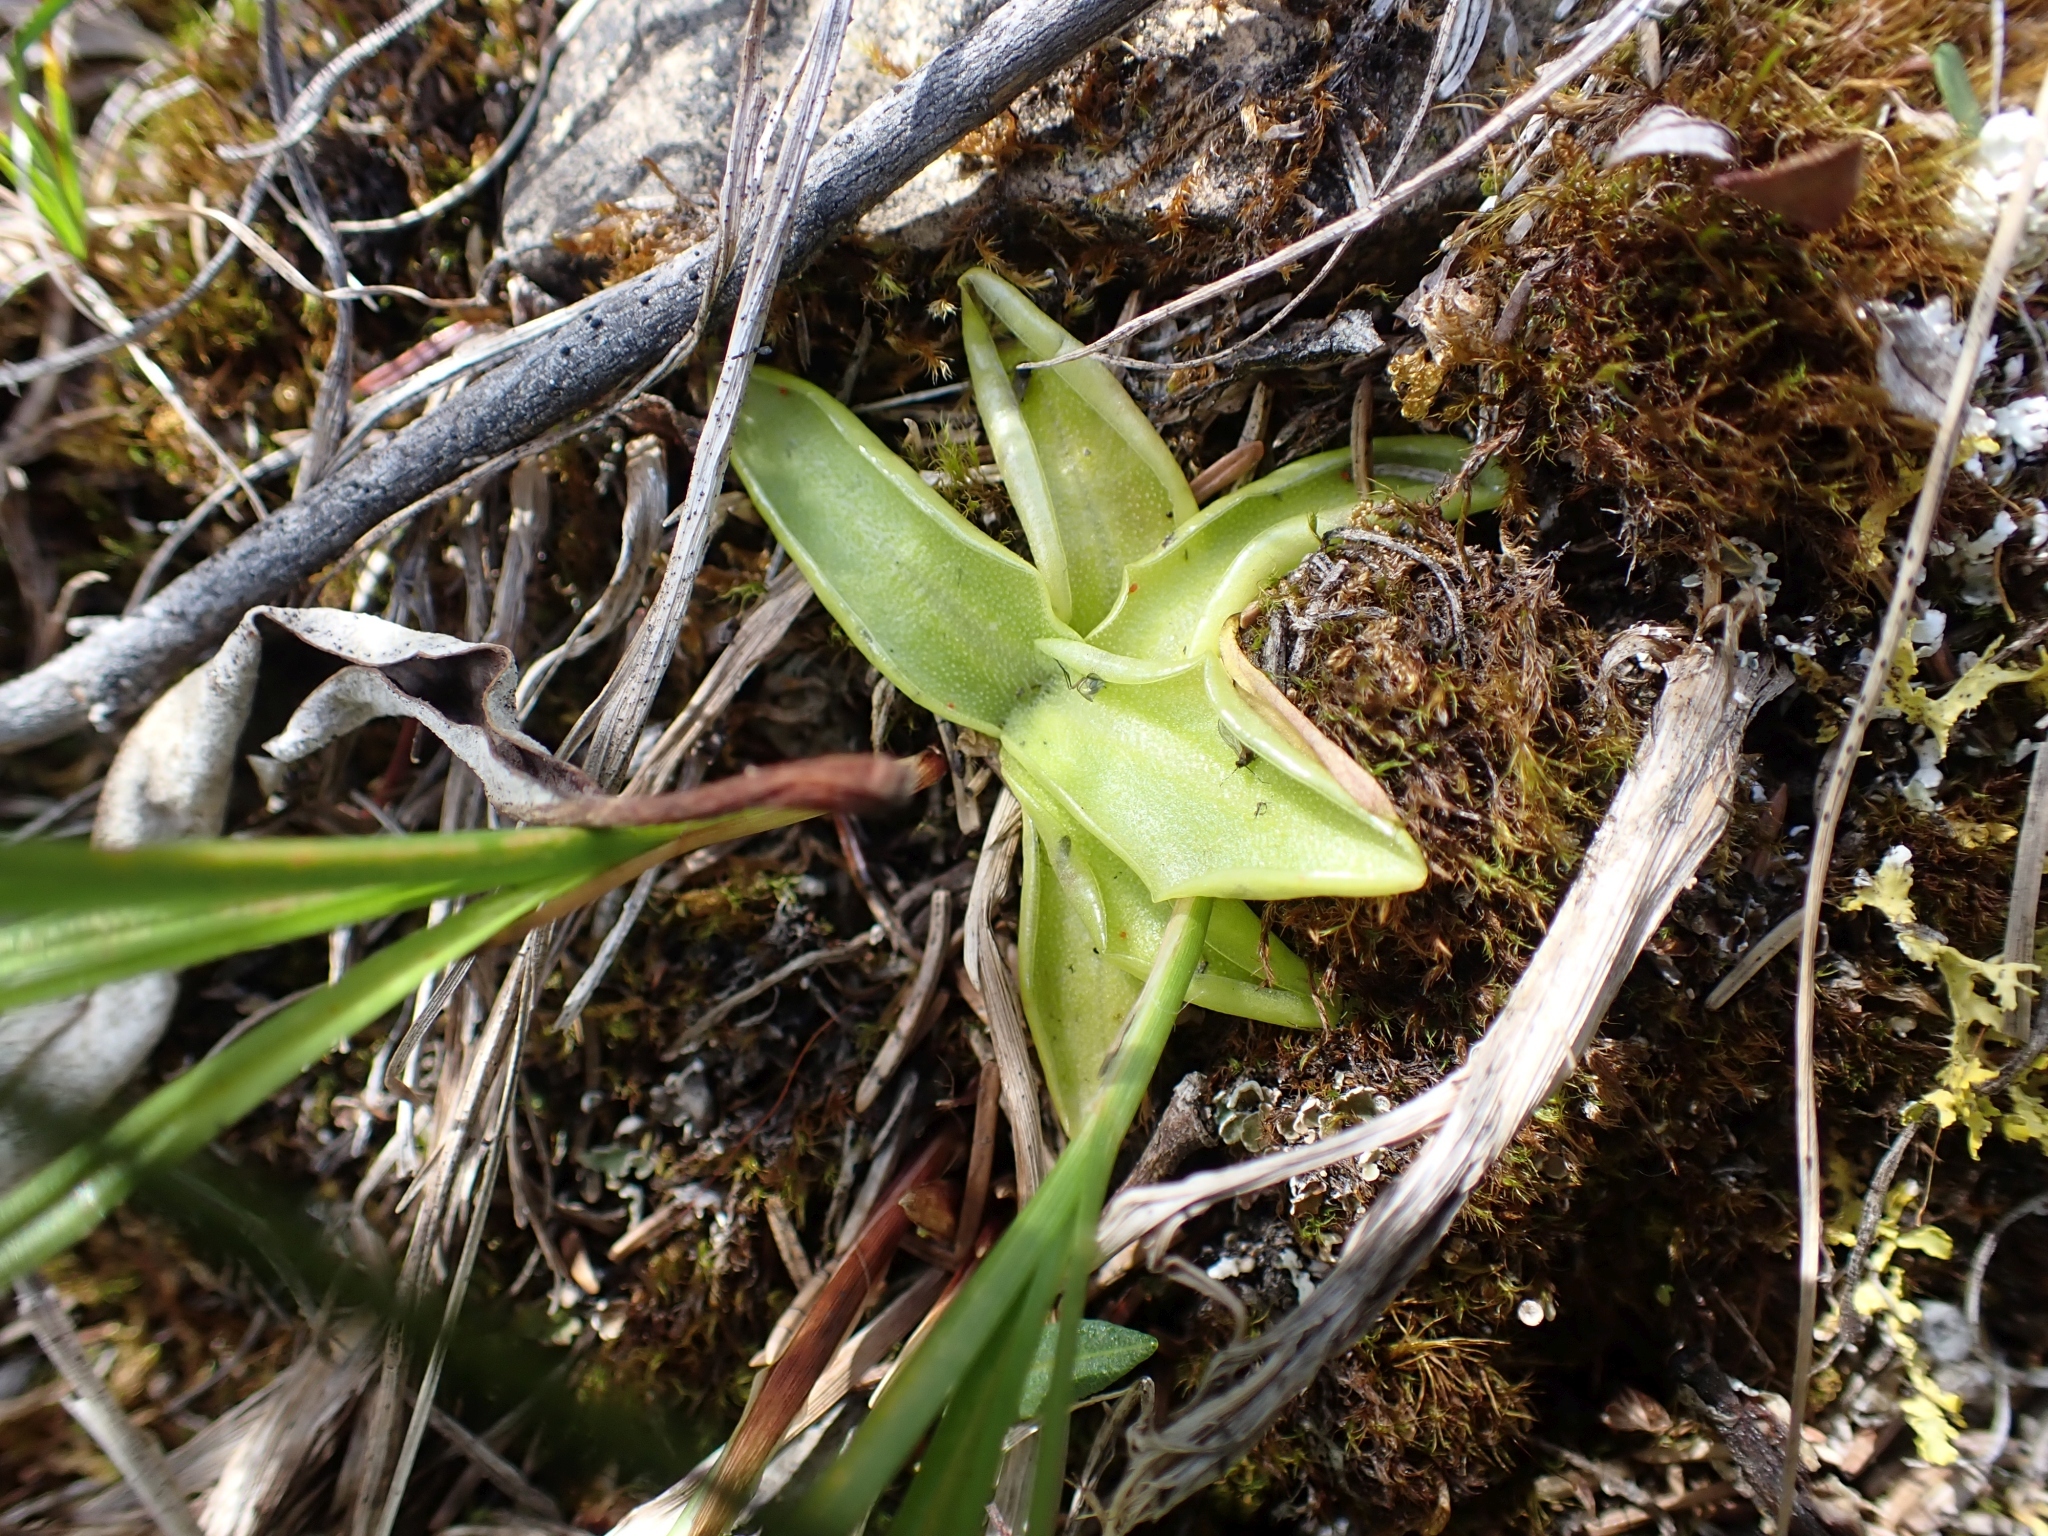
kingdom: Plantae
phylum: Tracheophyta
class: Magnoliopsida
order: Lamiales
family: Lentibulariaceae
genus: Pinguicula
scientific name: Pinguicula vulgaris
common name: Common butterwort
